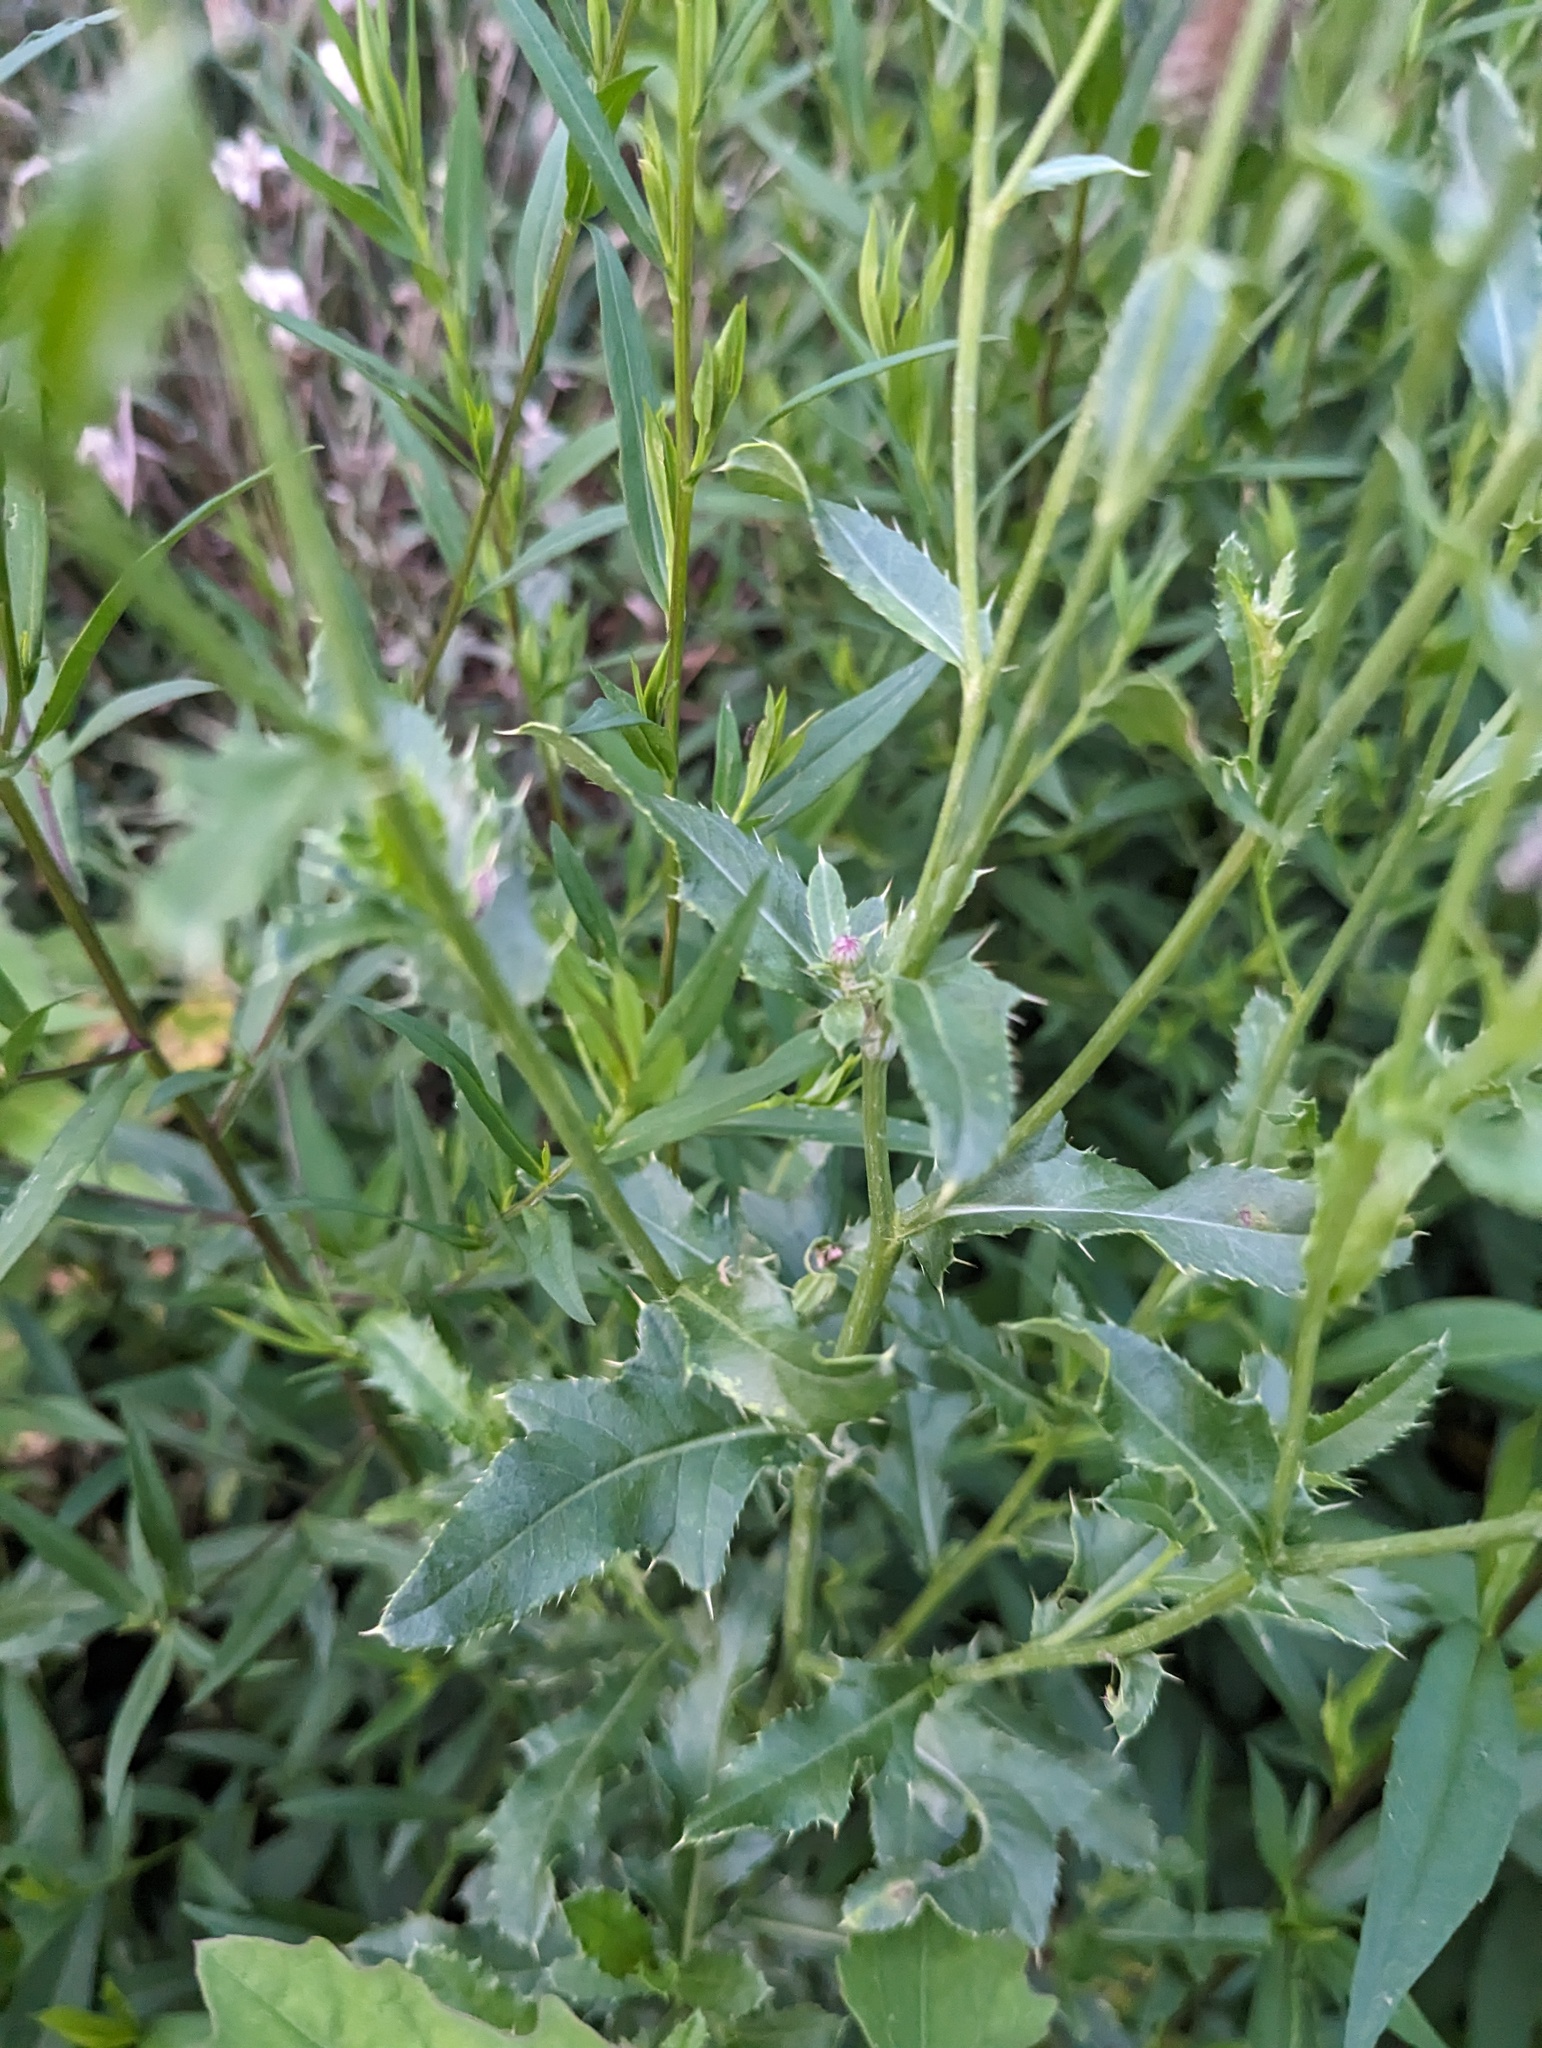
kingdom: Plantae
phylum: Tracheophyta
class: Magnoliopsida
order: Asterales
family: Asteraceae
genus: Cirsium
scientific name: Cirsium arvense
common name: Creeping thistle
